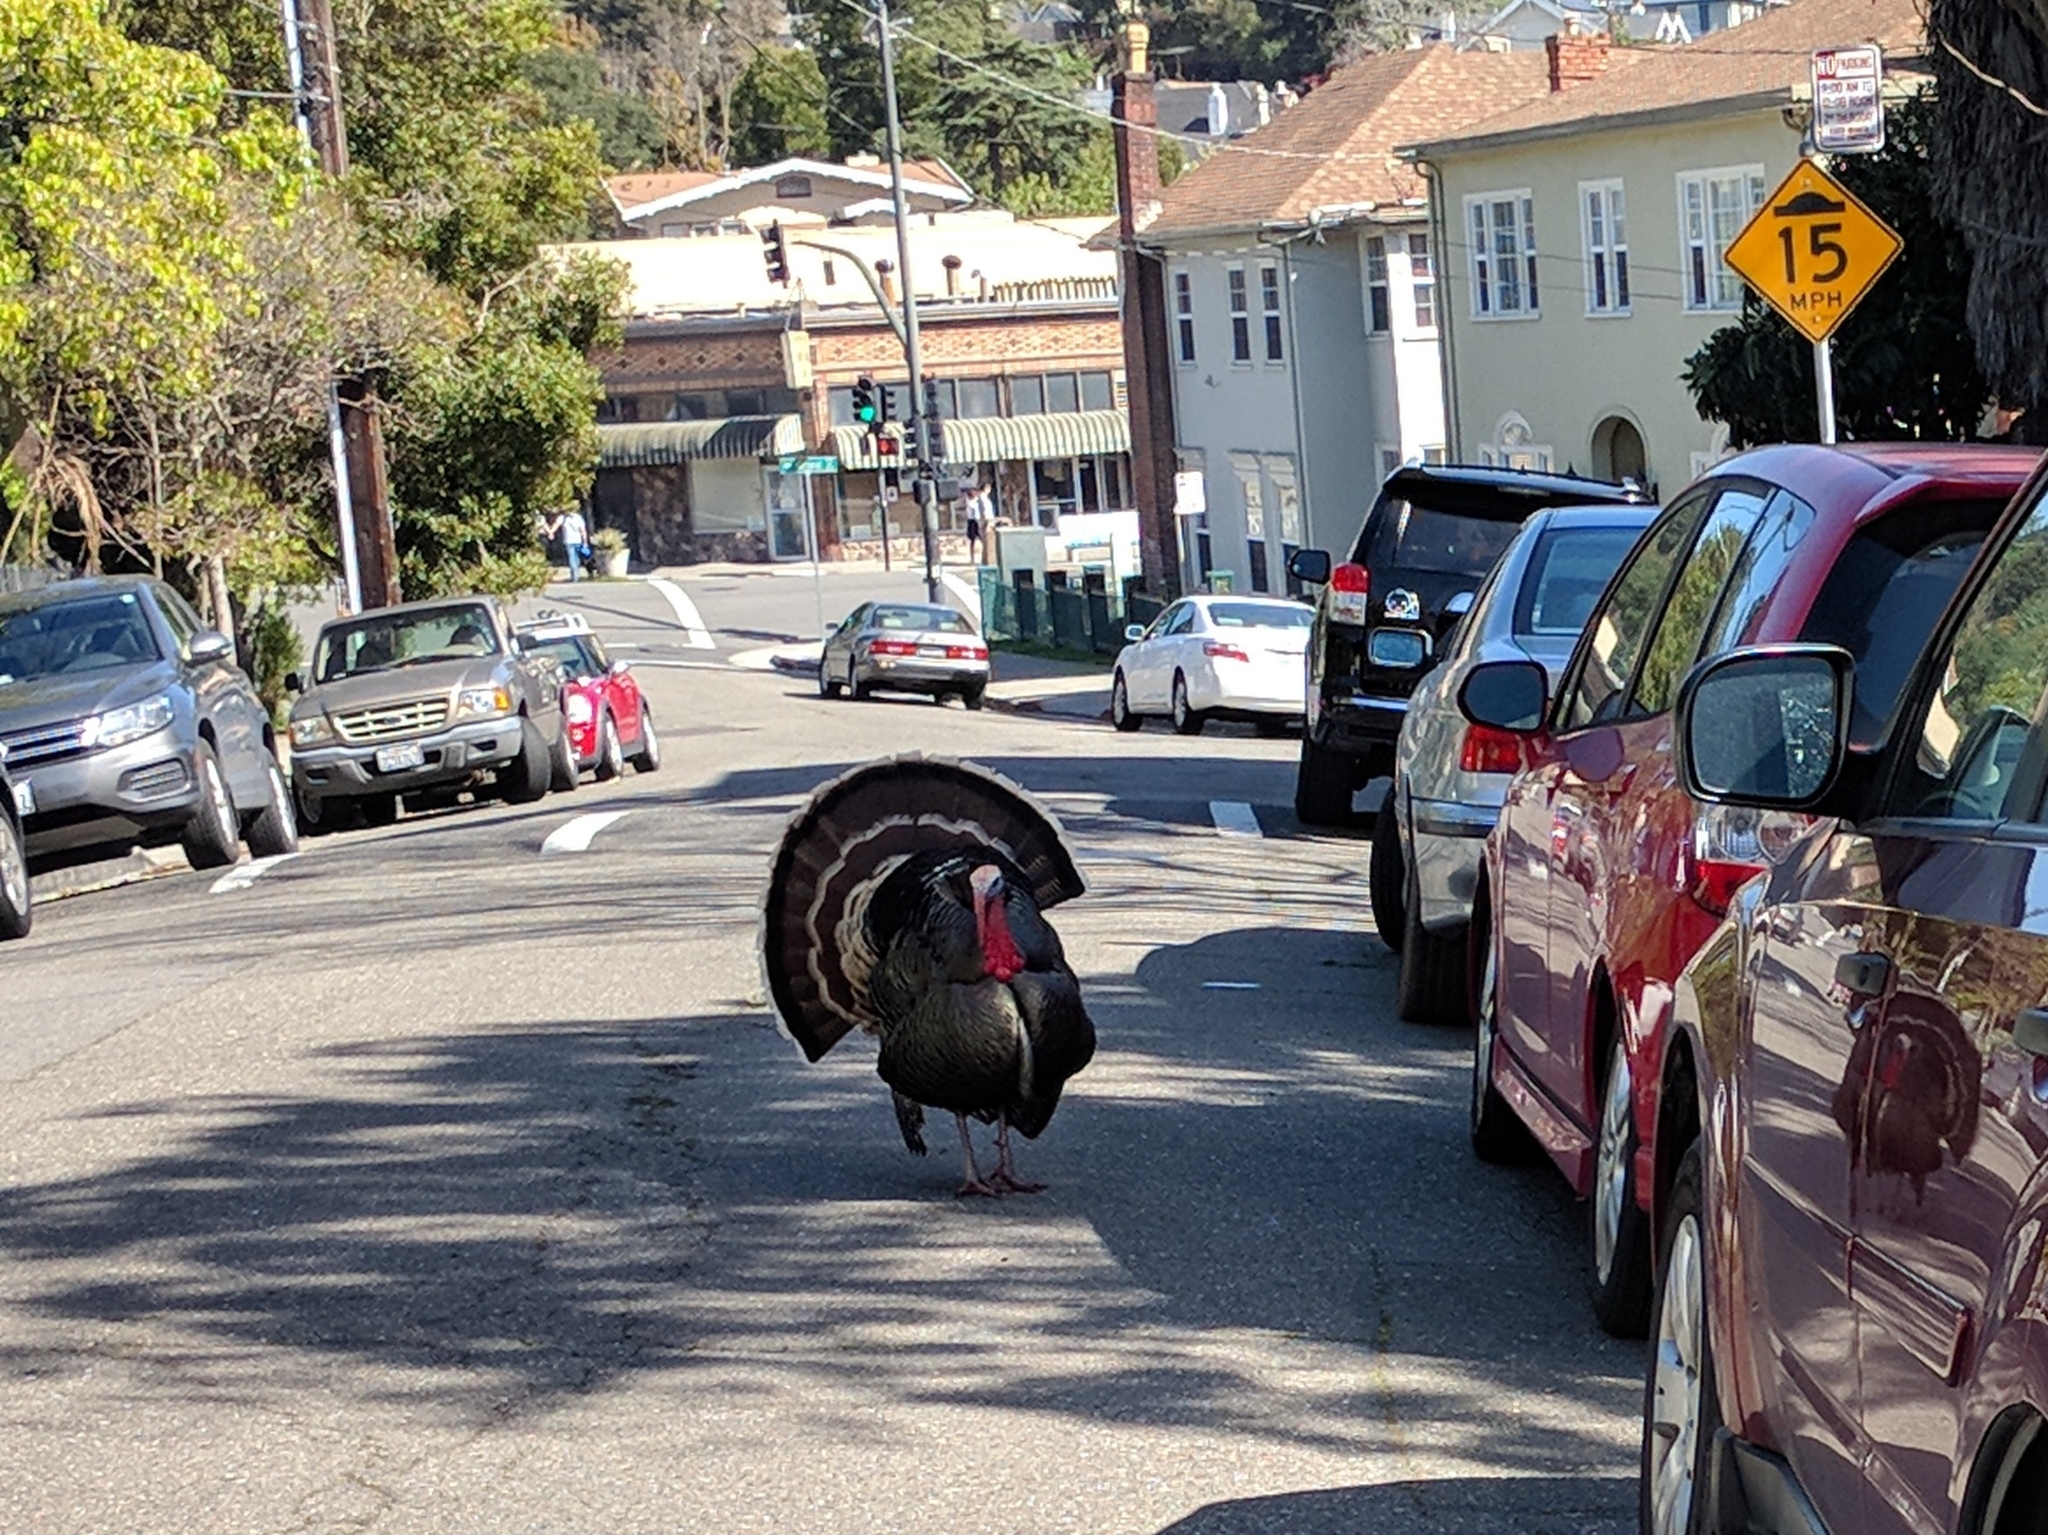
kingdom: Animalia
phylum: Chordata
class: Aves
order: Galliformes
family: Phasianidae
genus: Meleagris
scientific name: Meleagris gallopavo
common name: Wild turkey
